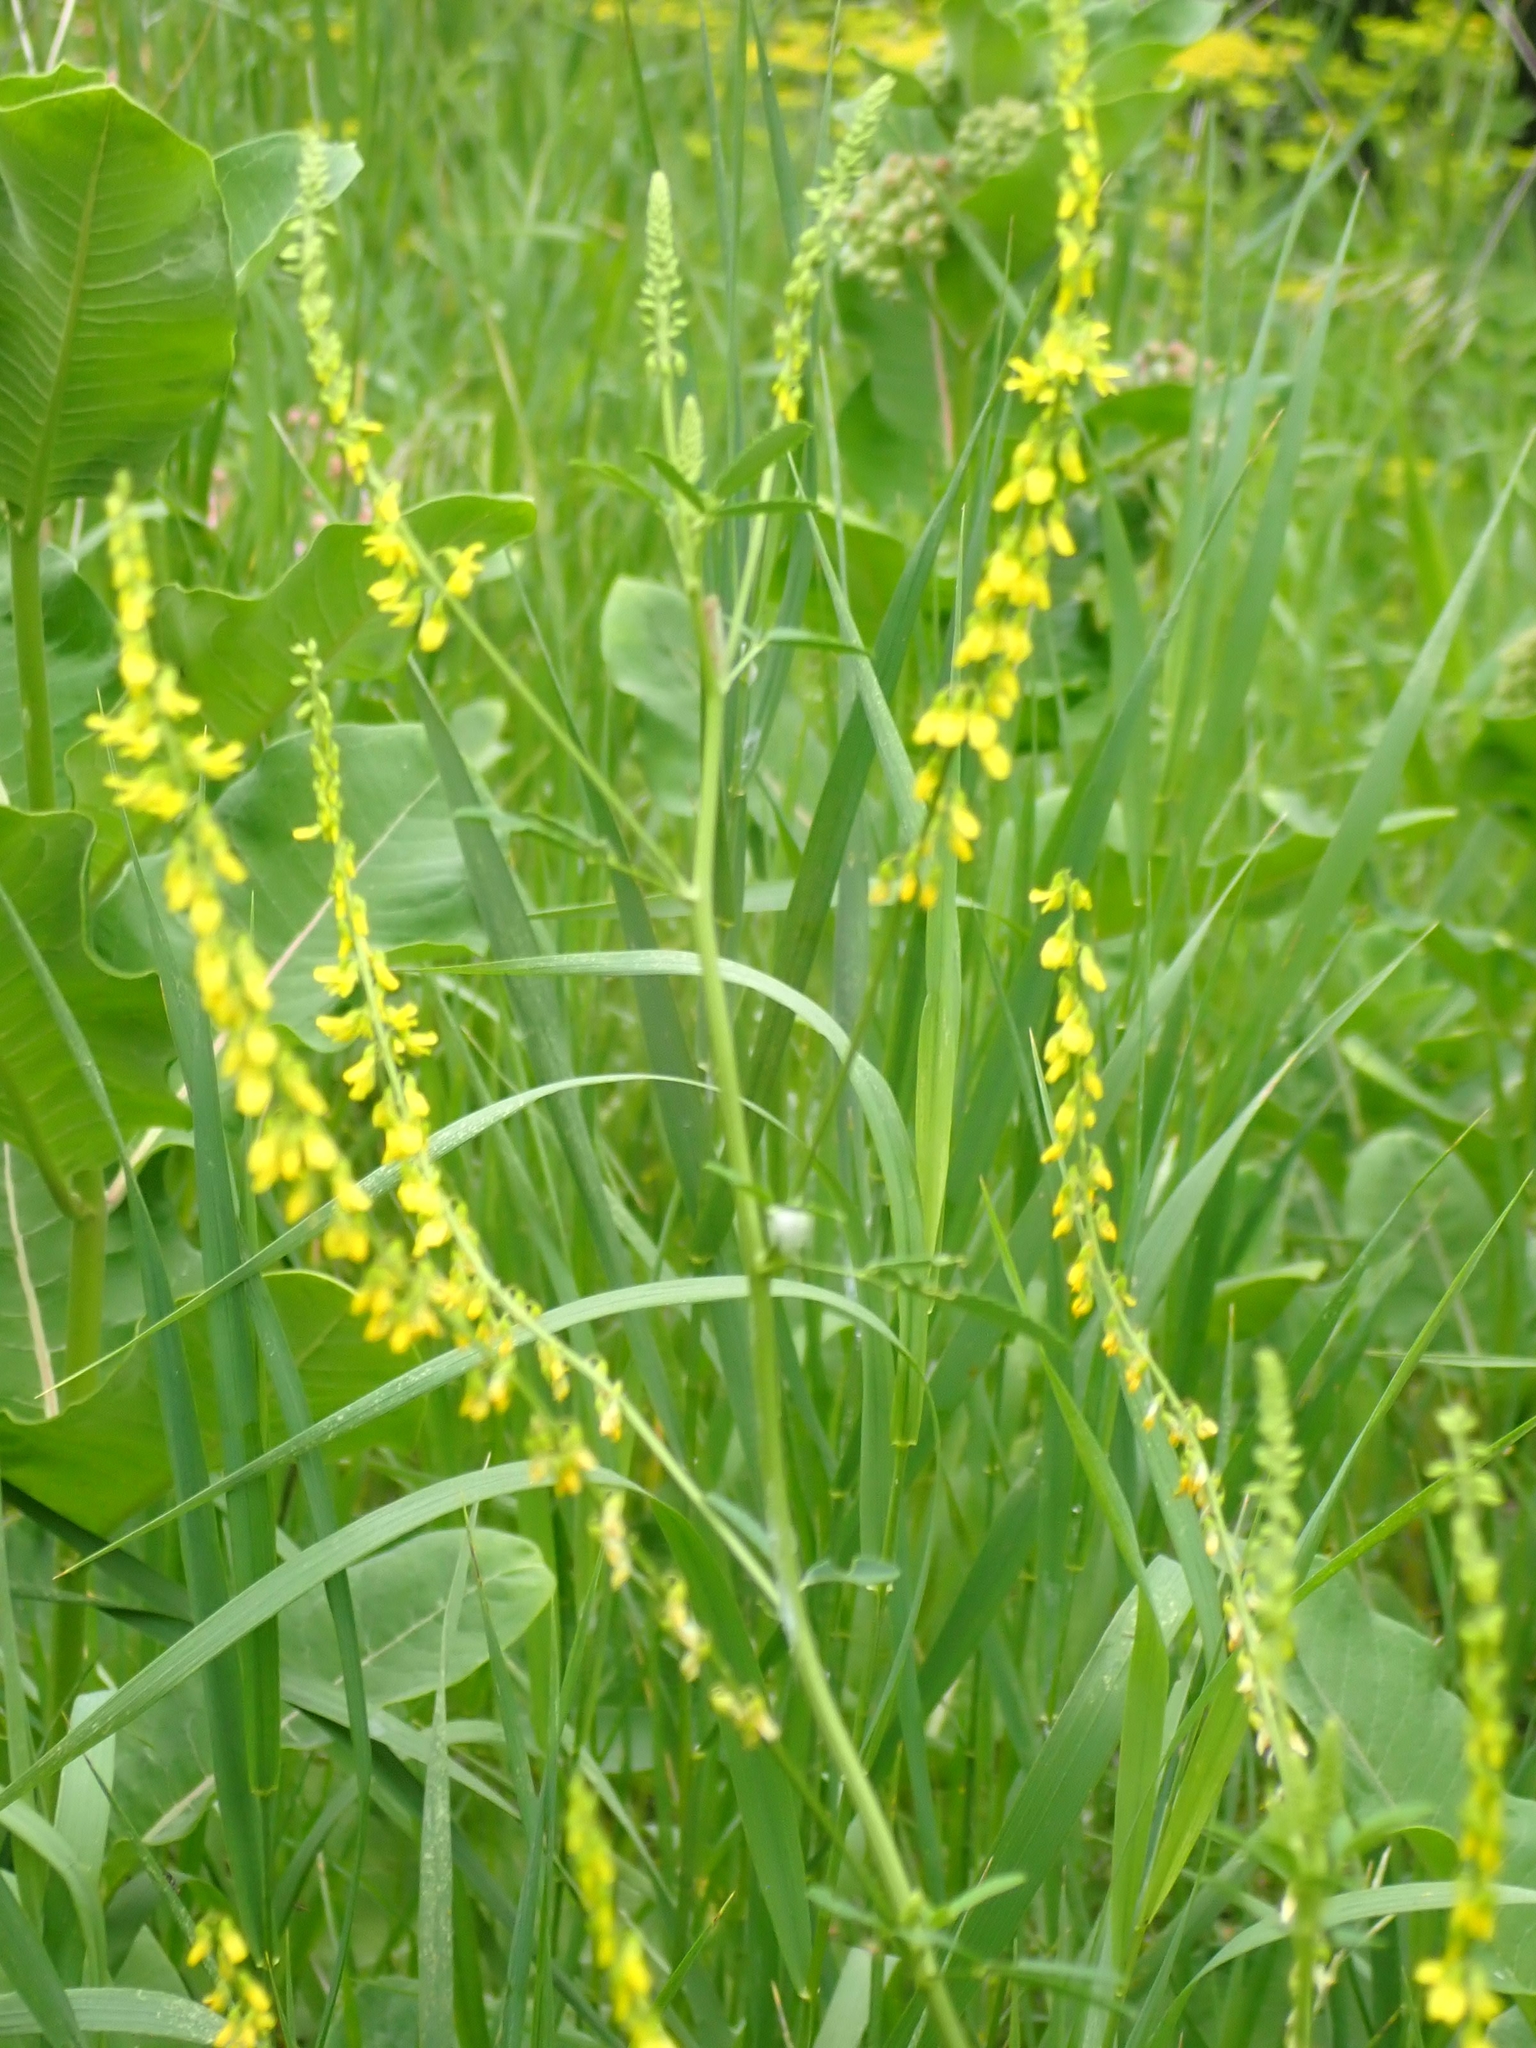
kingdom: Plantae
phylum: Tracheophyta
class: Magnoliopsida
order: Fabales
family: Fabaceae
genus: Melilotus
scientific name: Melilotus officinalis
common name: Sweetclover
